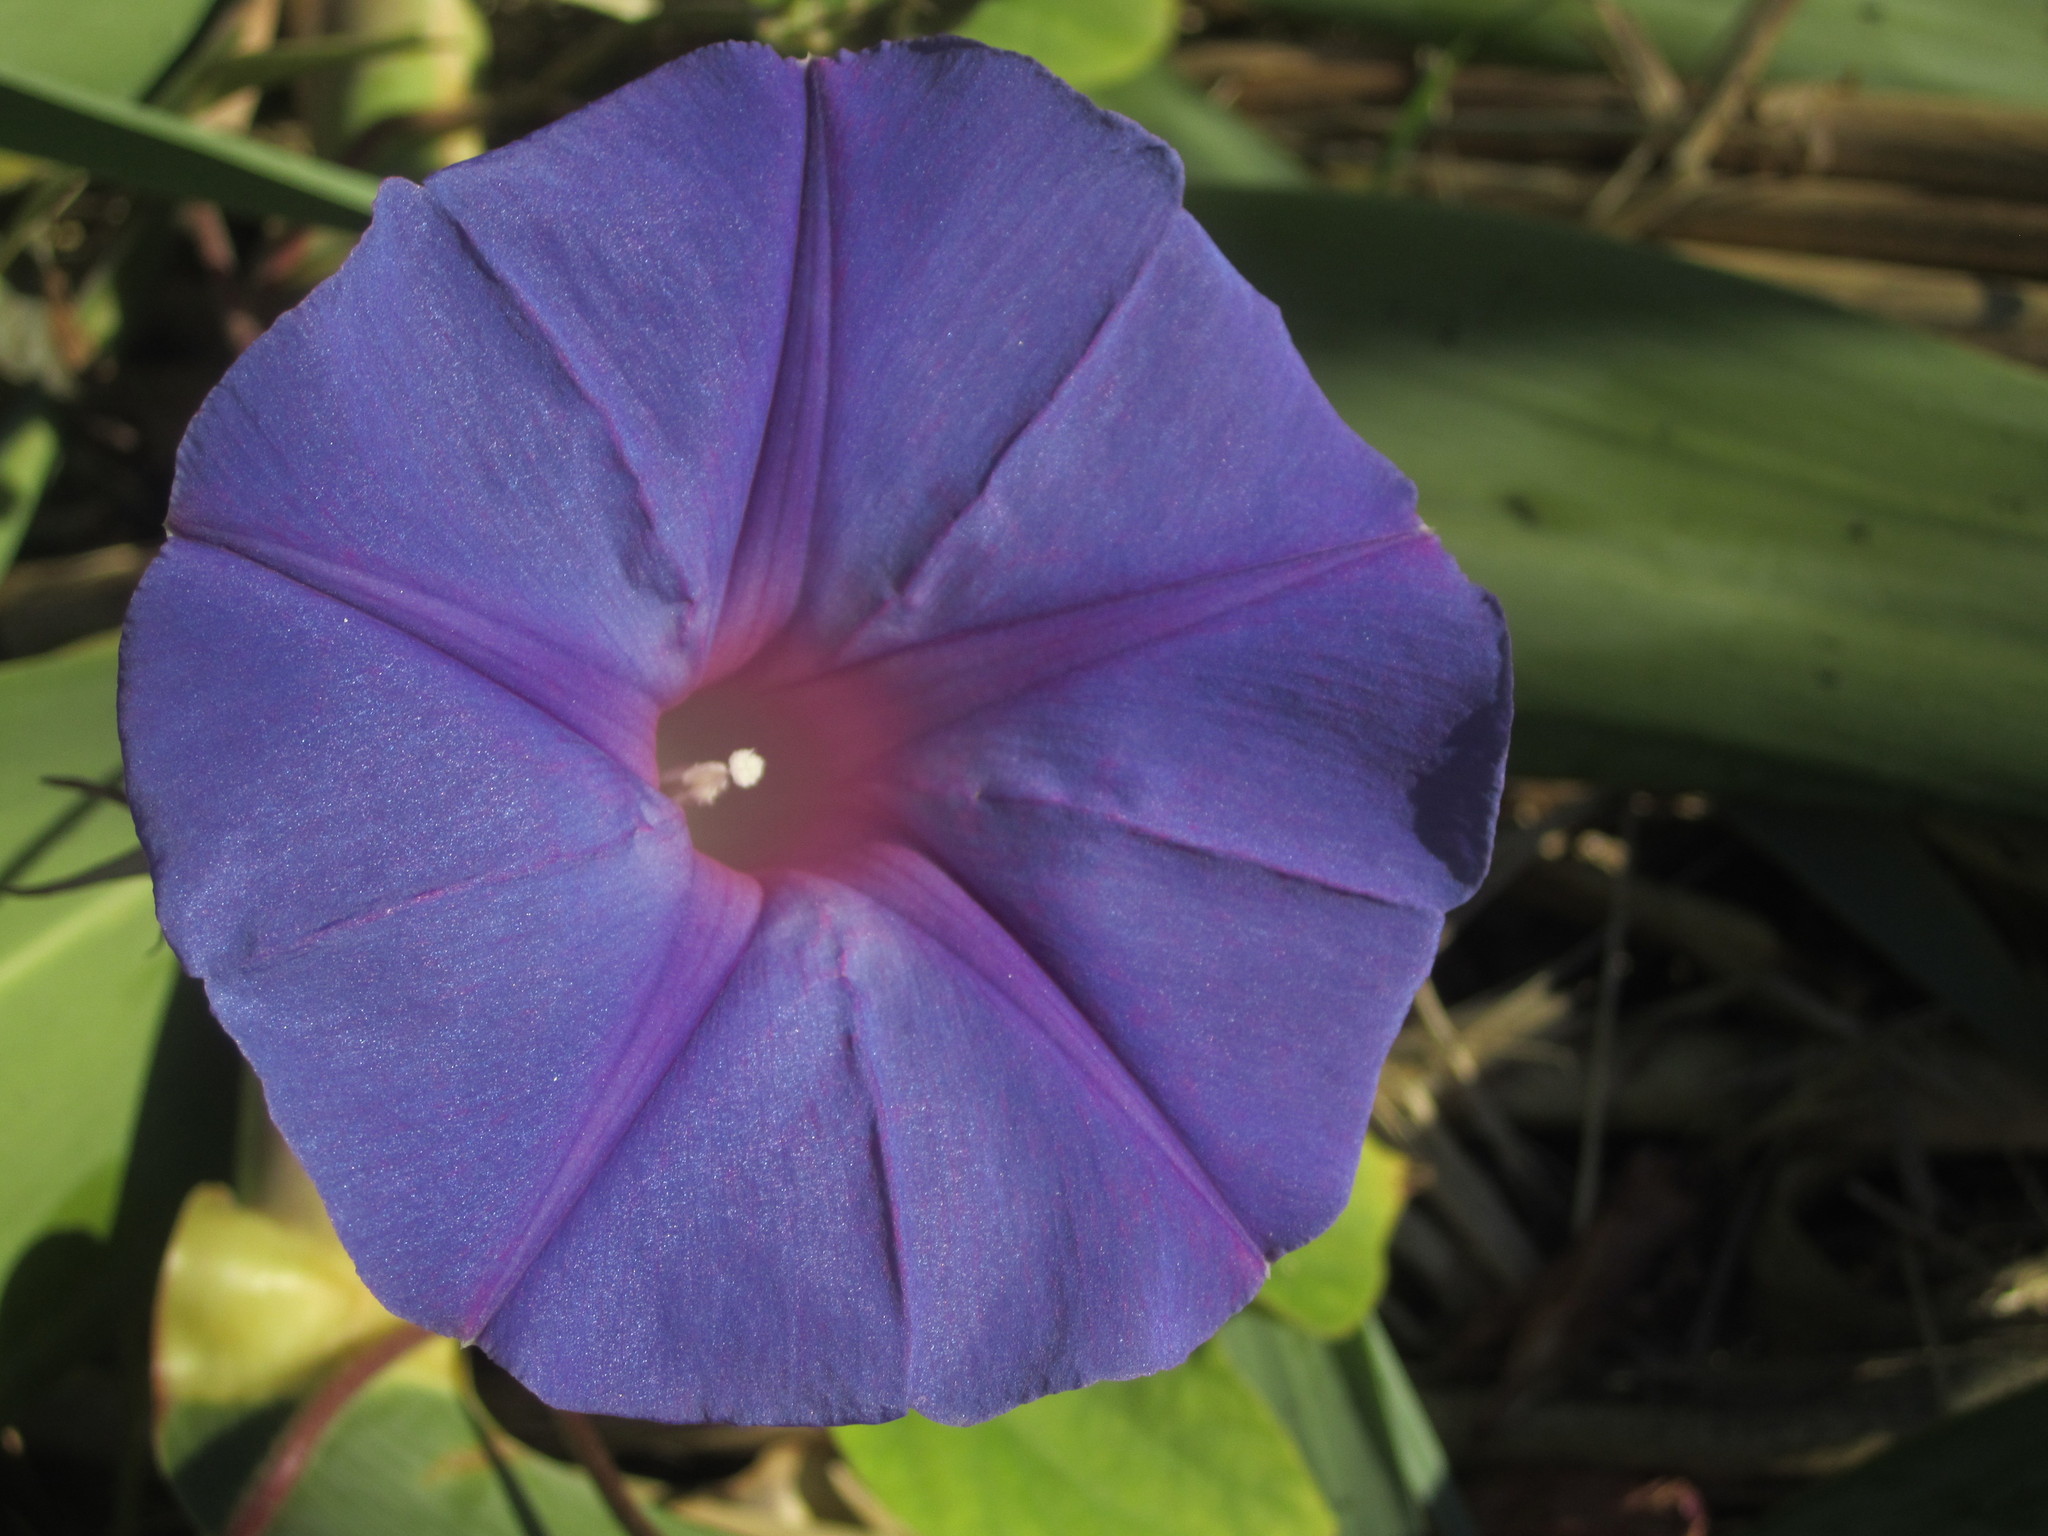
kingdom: Plantae
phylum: Tracheophyta
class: Magnoliopsida
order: Solanales
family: Convolvulaceae
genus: Ipomoea
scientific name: Ipomoea indica
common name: Blue dawnflower
